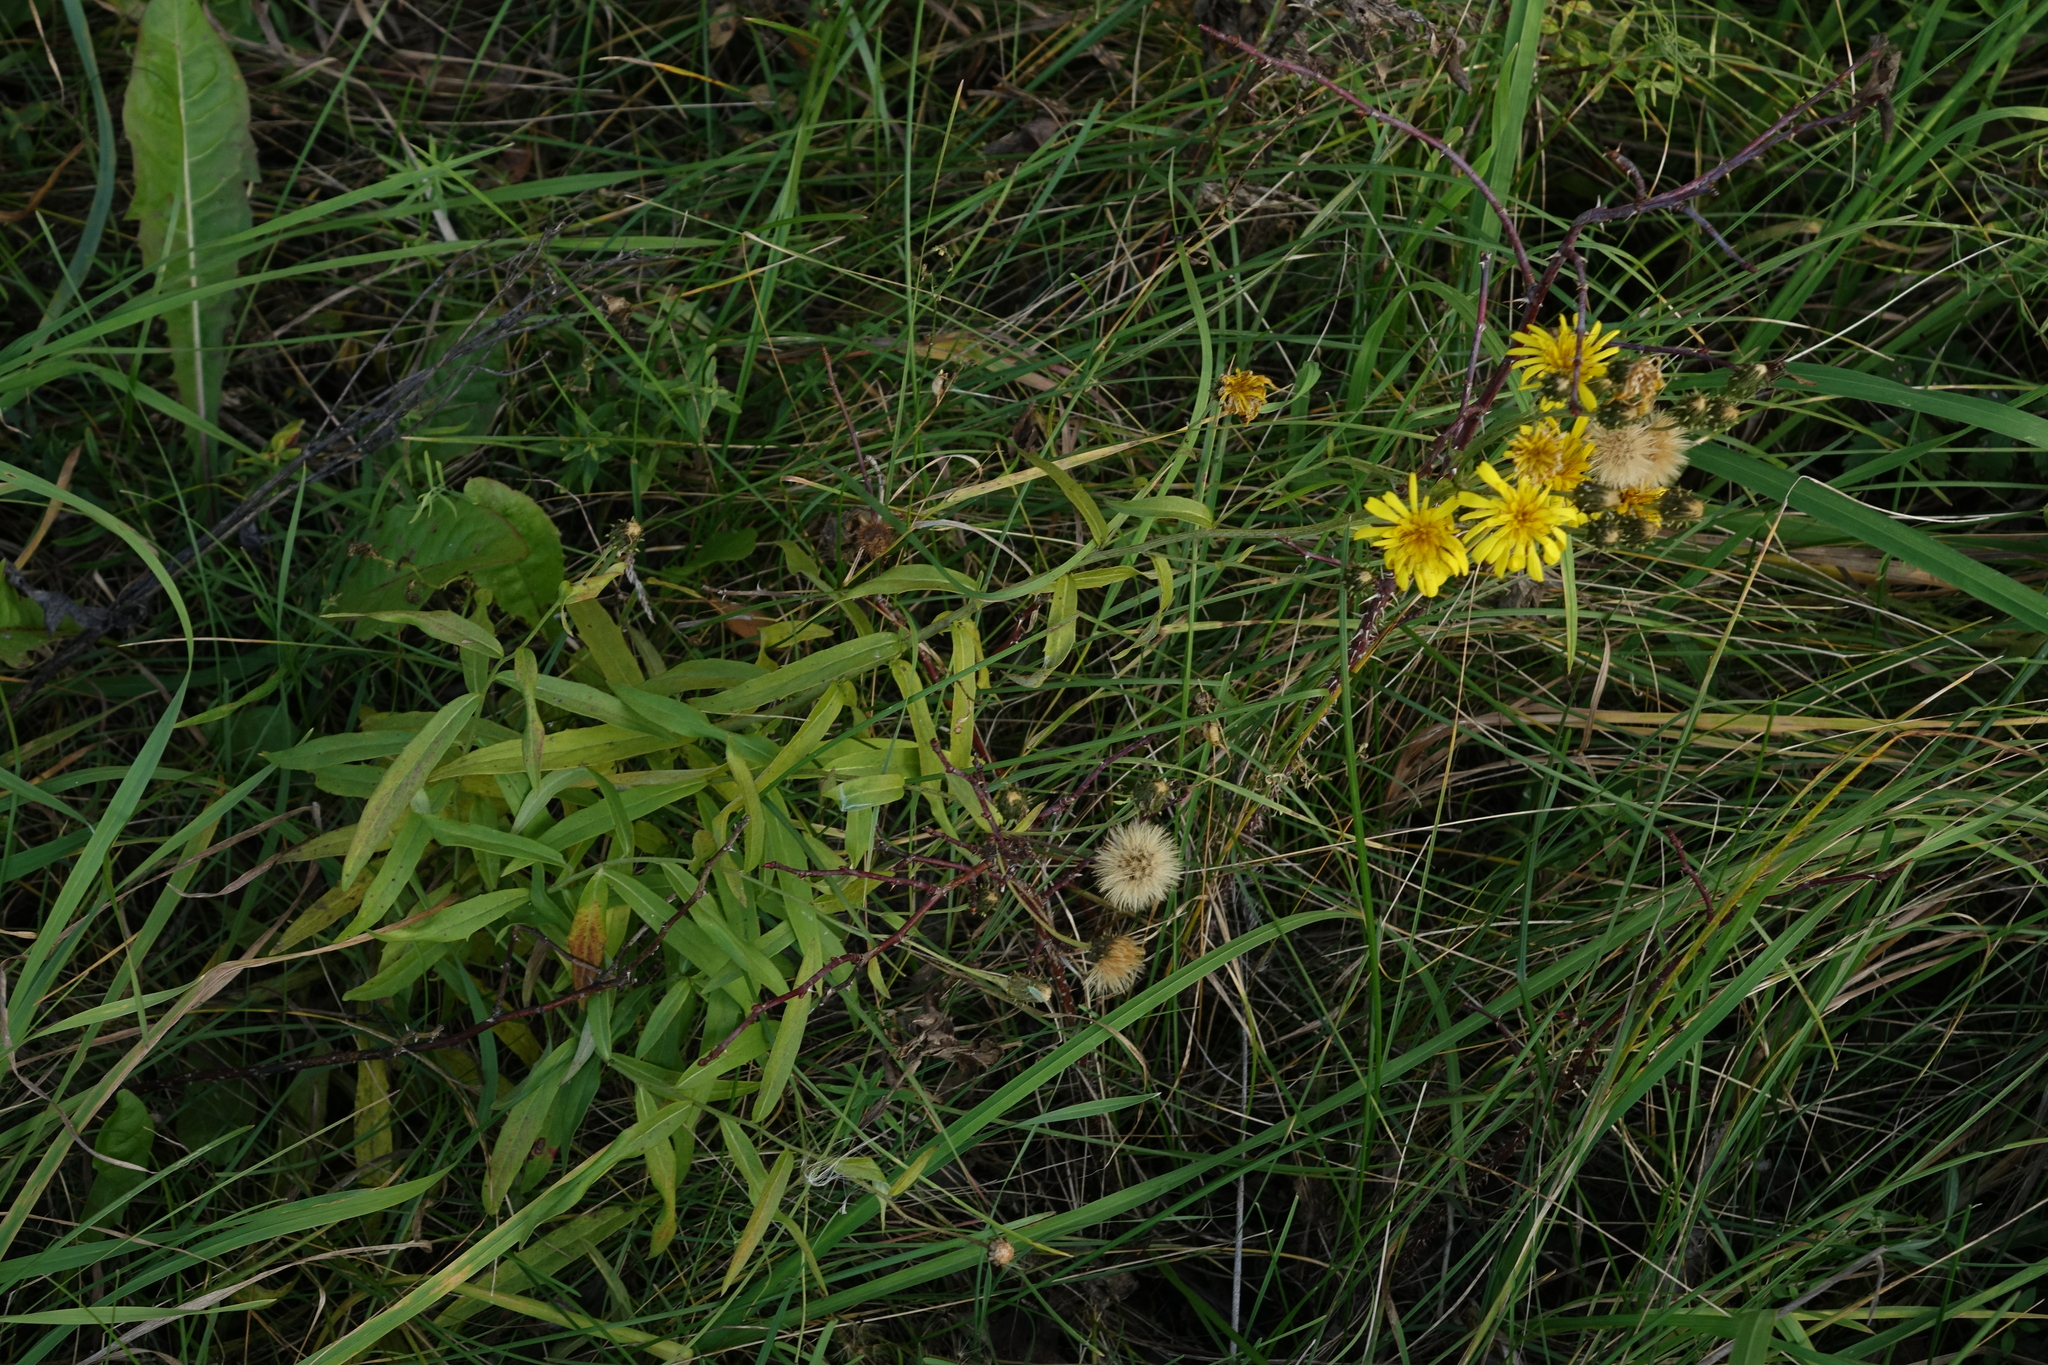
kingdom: Plantae
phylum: Tracheophyta
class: Magnoliopsida
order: Asterales
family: Asteraceae
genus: Hieracium
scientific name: Hieracium umbellatum
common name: Northern hawkweed
